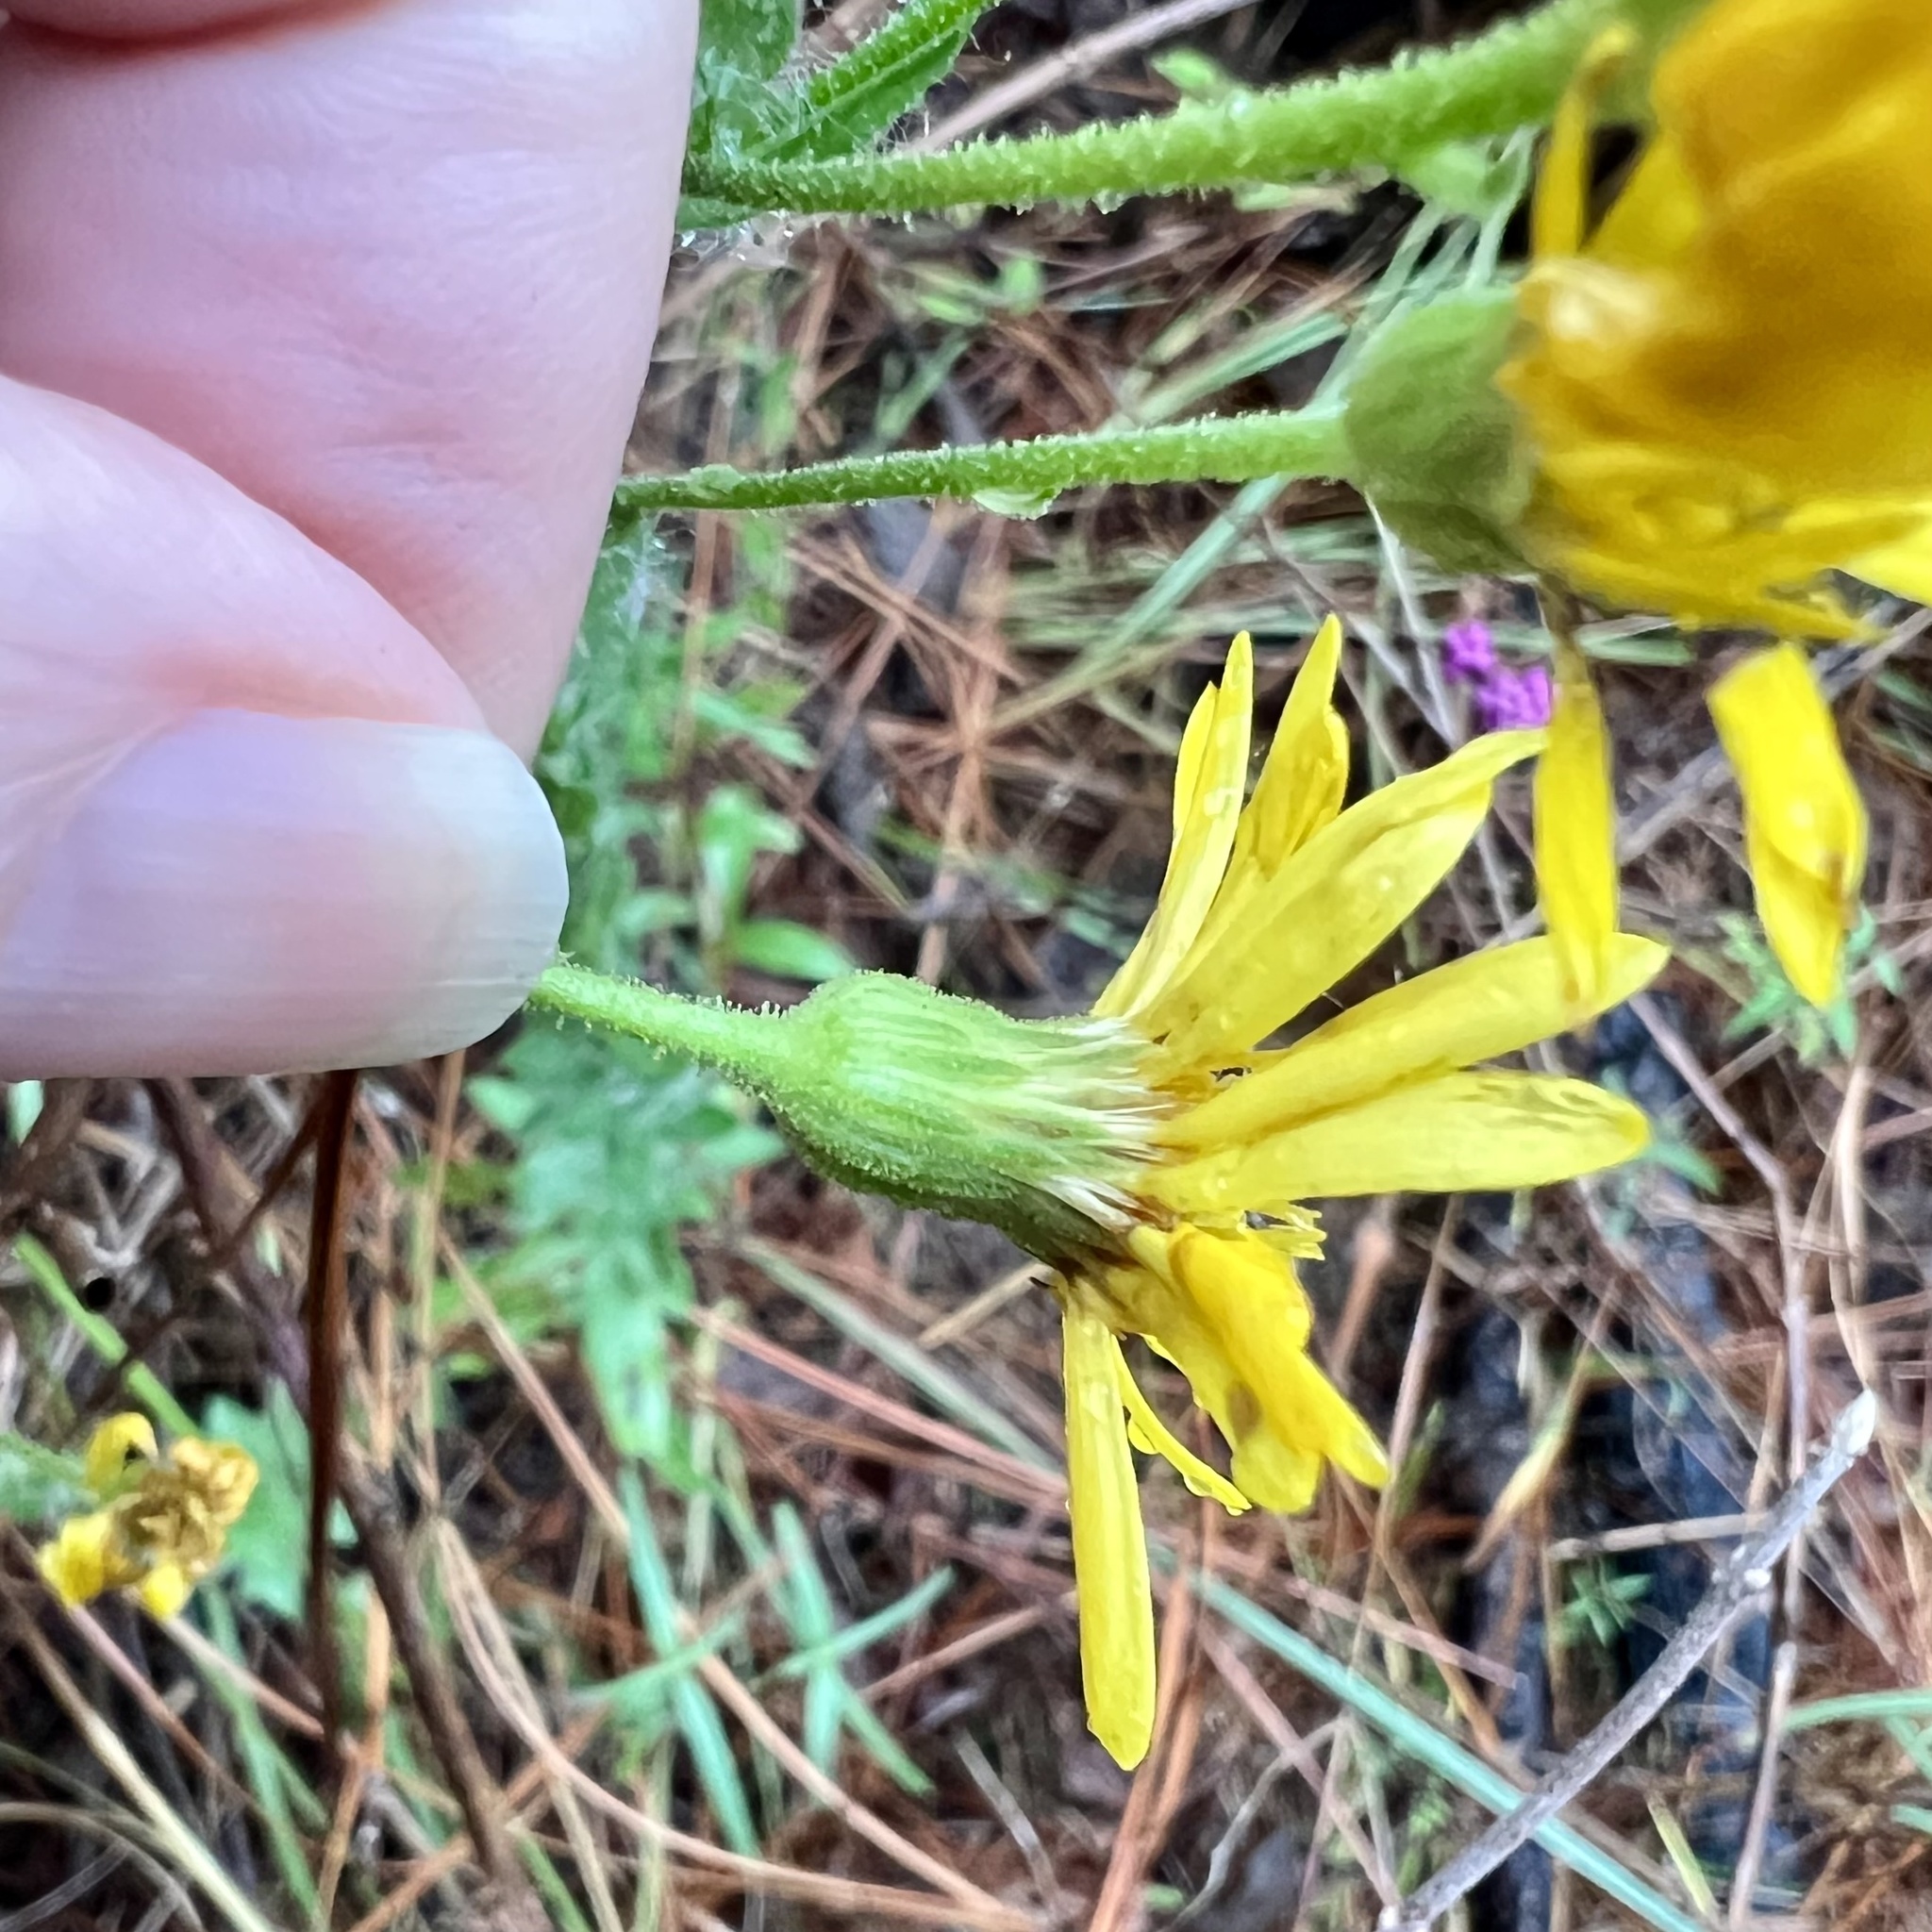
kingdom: Plantae
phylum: Tracheophyta
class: Magnoliopsida
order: Asterales
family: Asteraceae
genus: Bradburia
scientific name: Bradburia pilosa
